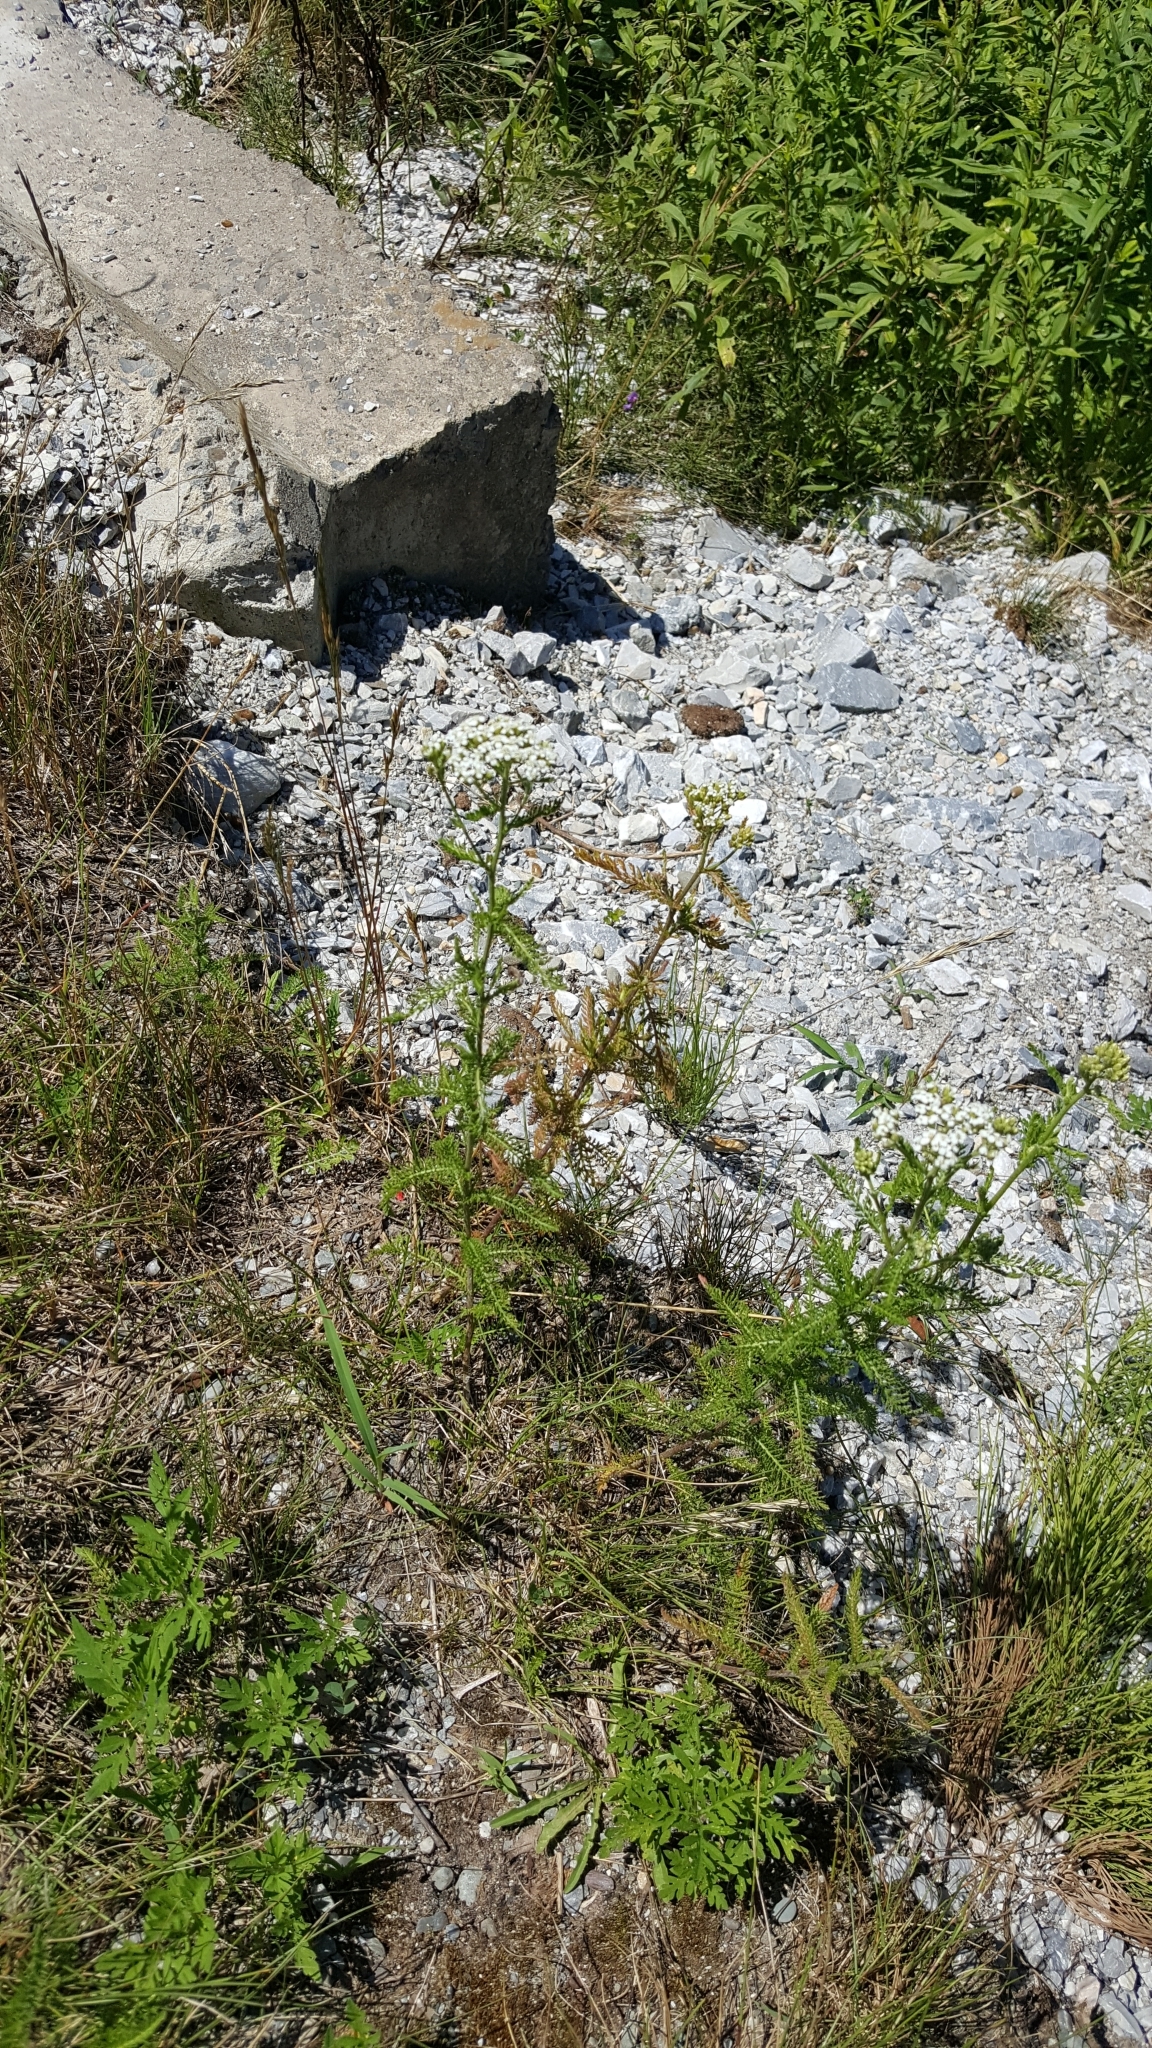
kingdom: Plantae
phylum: Tracheophyta
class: Magnoliopsida
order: Asterales
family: Asteraceae
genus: Achillea
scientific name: Achillea millefolium
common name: Yarrow
